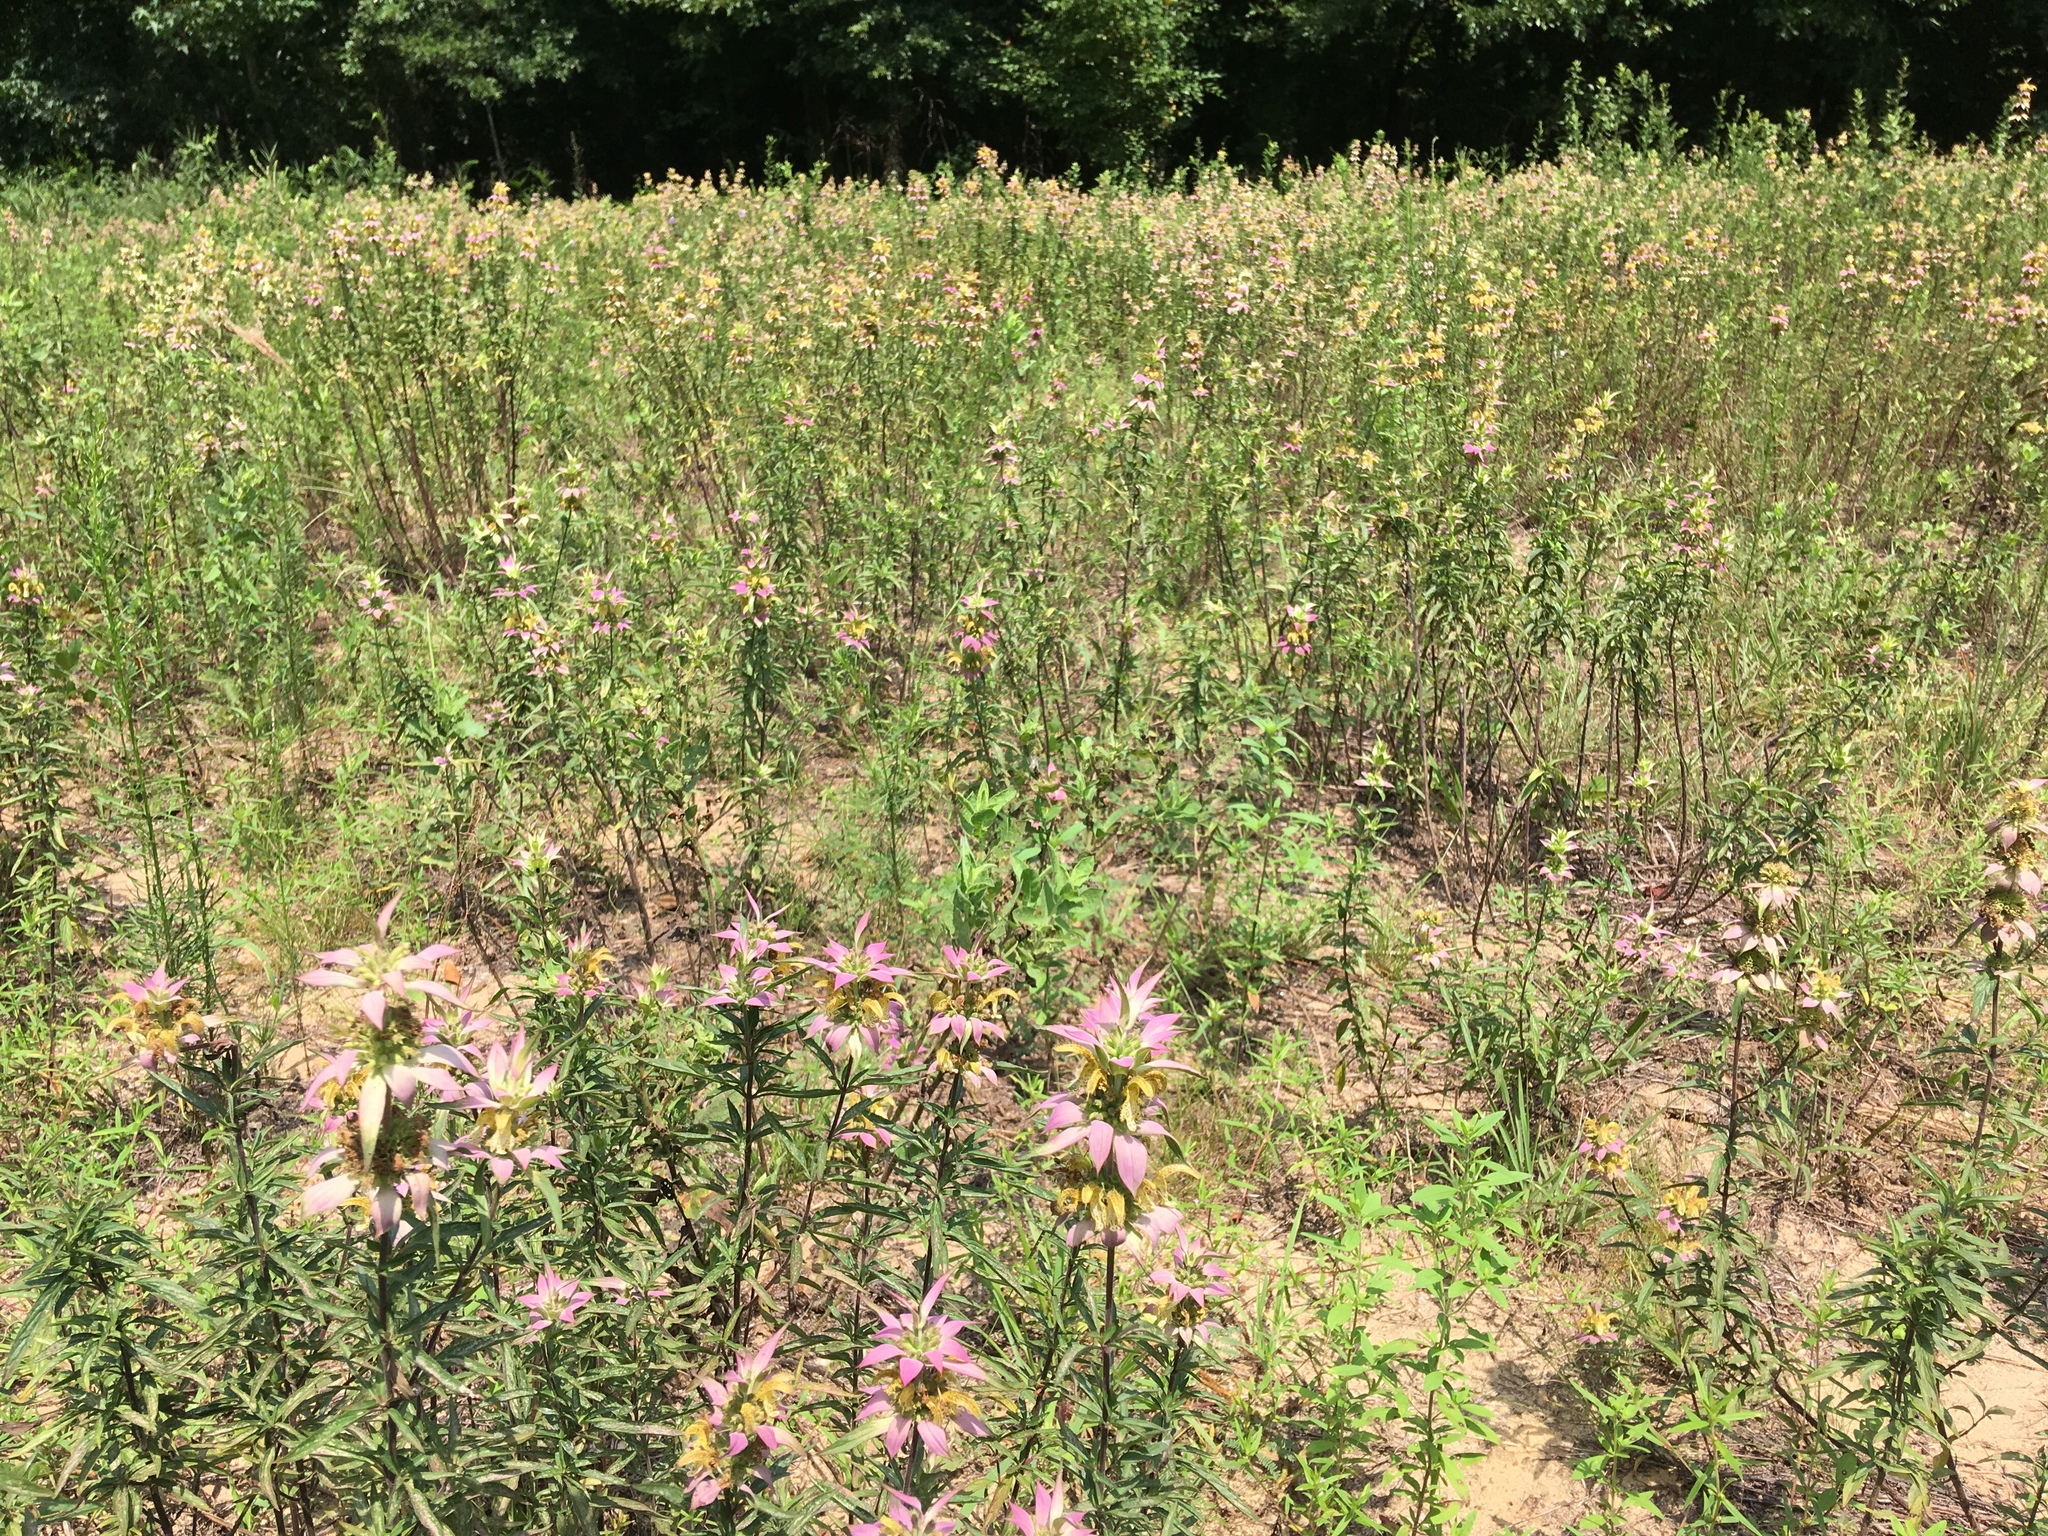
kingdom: Plantae
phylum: Tracheophyta
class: Magnoliopsida
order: Lamiales
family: Lamiaceae
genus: Monarda
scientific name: Monarda punctata
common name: Dotted monarda
